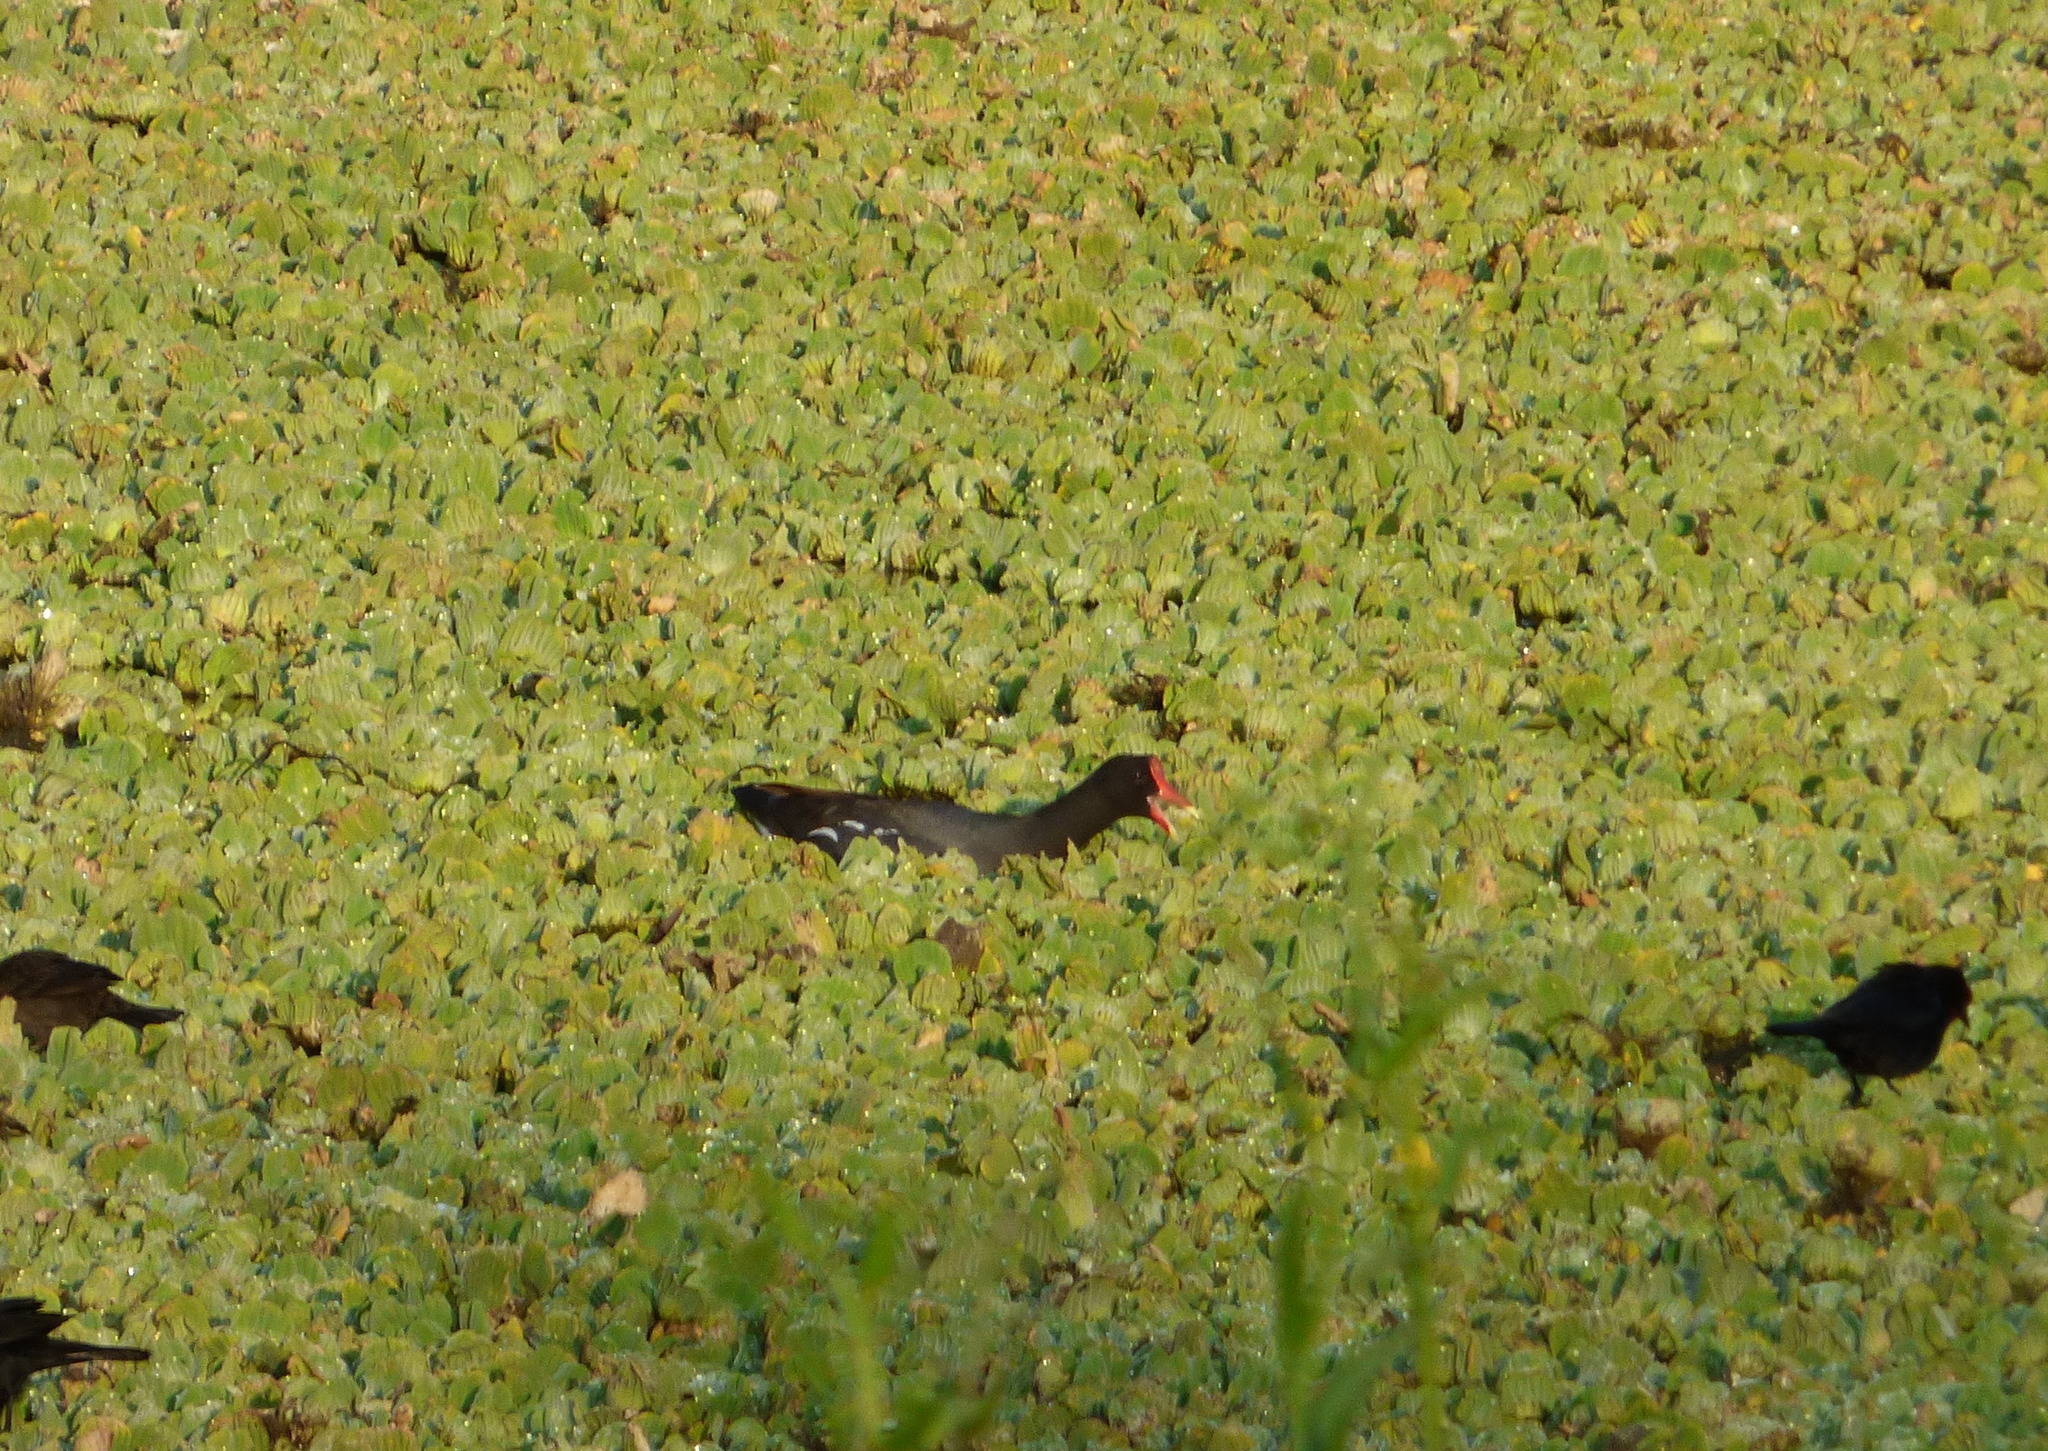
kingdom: Animalia
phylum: Chordata
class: Aves
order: Gruiformes
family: Rallidae
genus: Gallinula
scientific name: Gallinula chloropus
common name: Common moorhen
